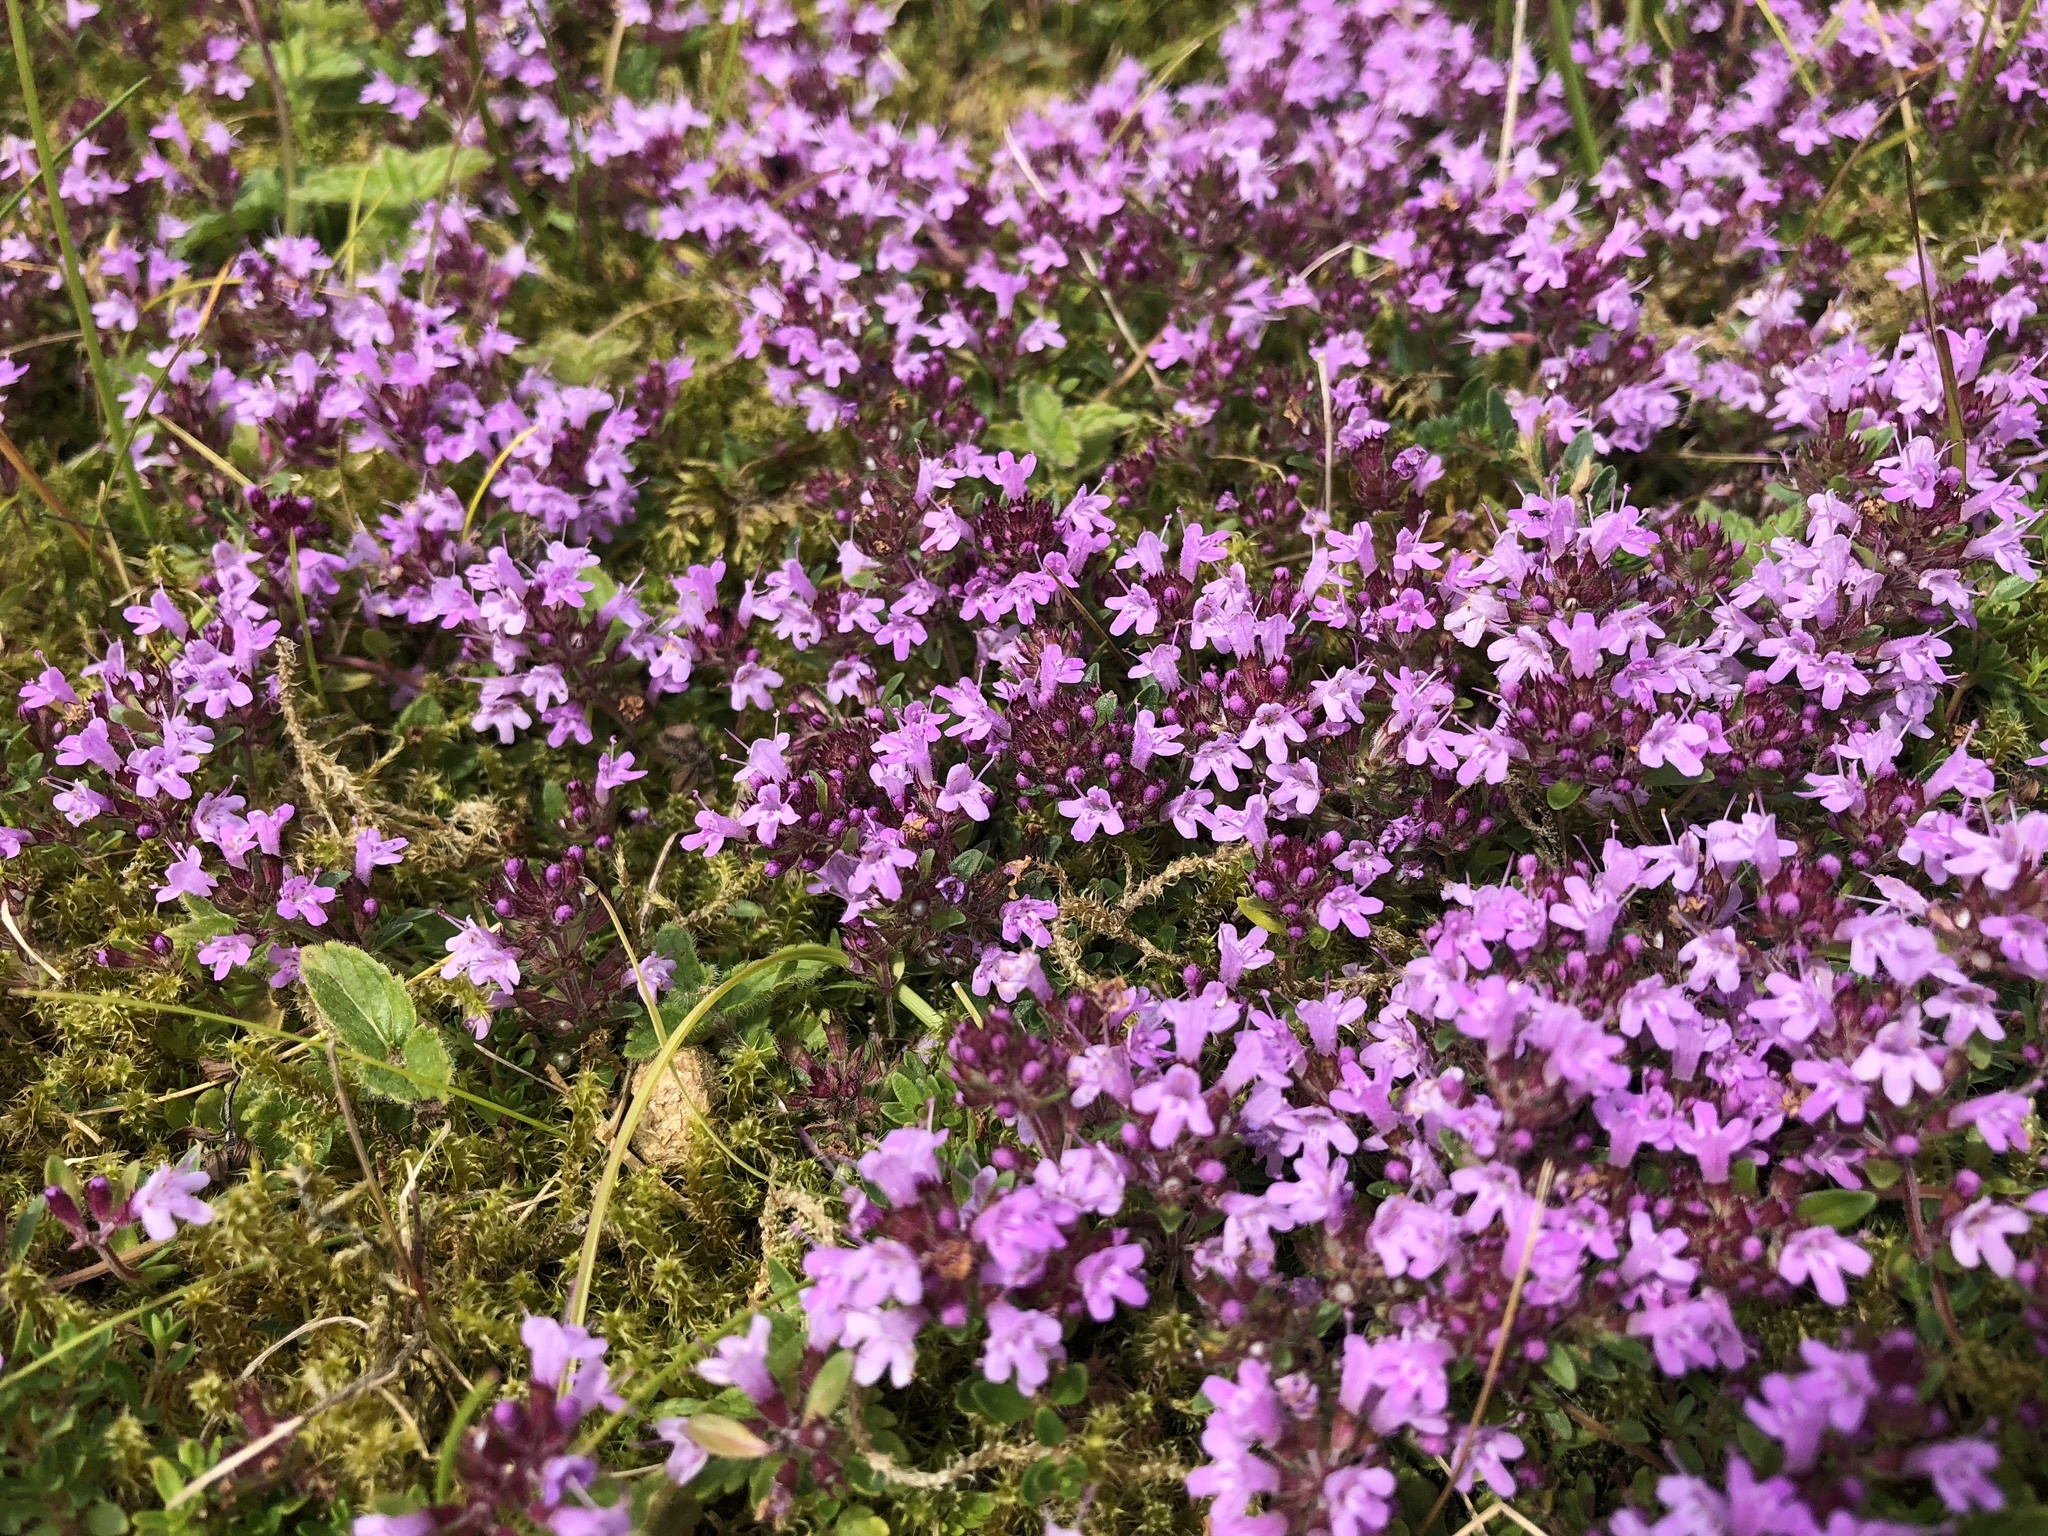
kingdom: Plantae
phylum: Tracheophyta
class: Magnoliopsida
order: Lamiales
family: Lamiaceae
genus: Thymus
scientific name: Thymus praecox
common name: Wild thyme
